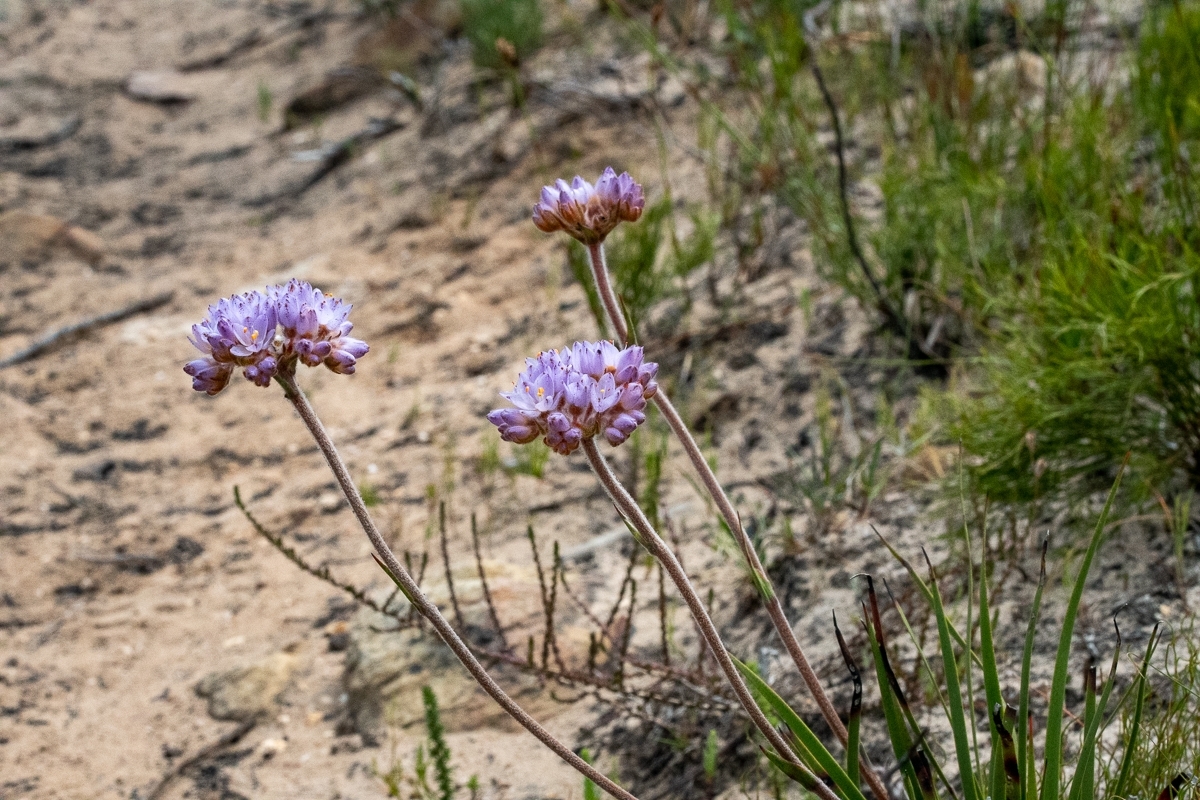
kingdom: Plantae
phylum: Tracheophyta
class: Liliopsida
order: Commelinales
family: Haemodoraceae
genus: Dilatris
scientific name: Dilatris pillansii
